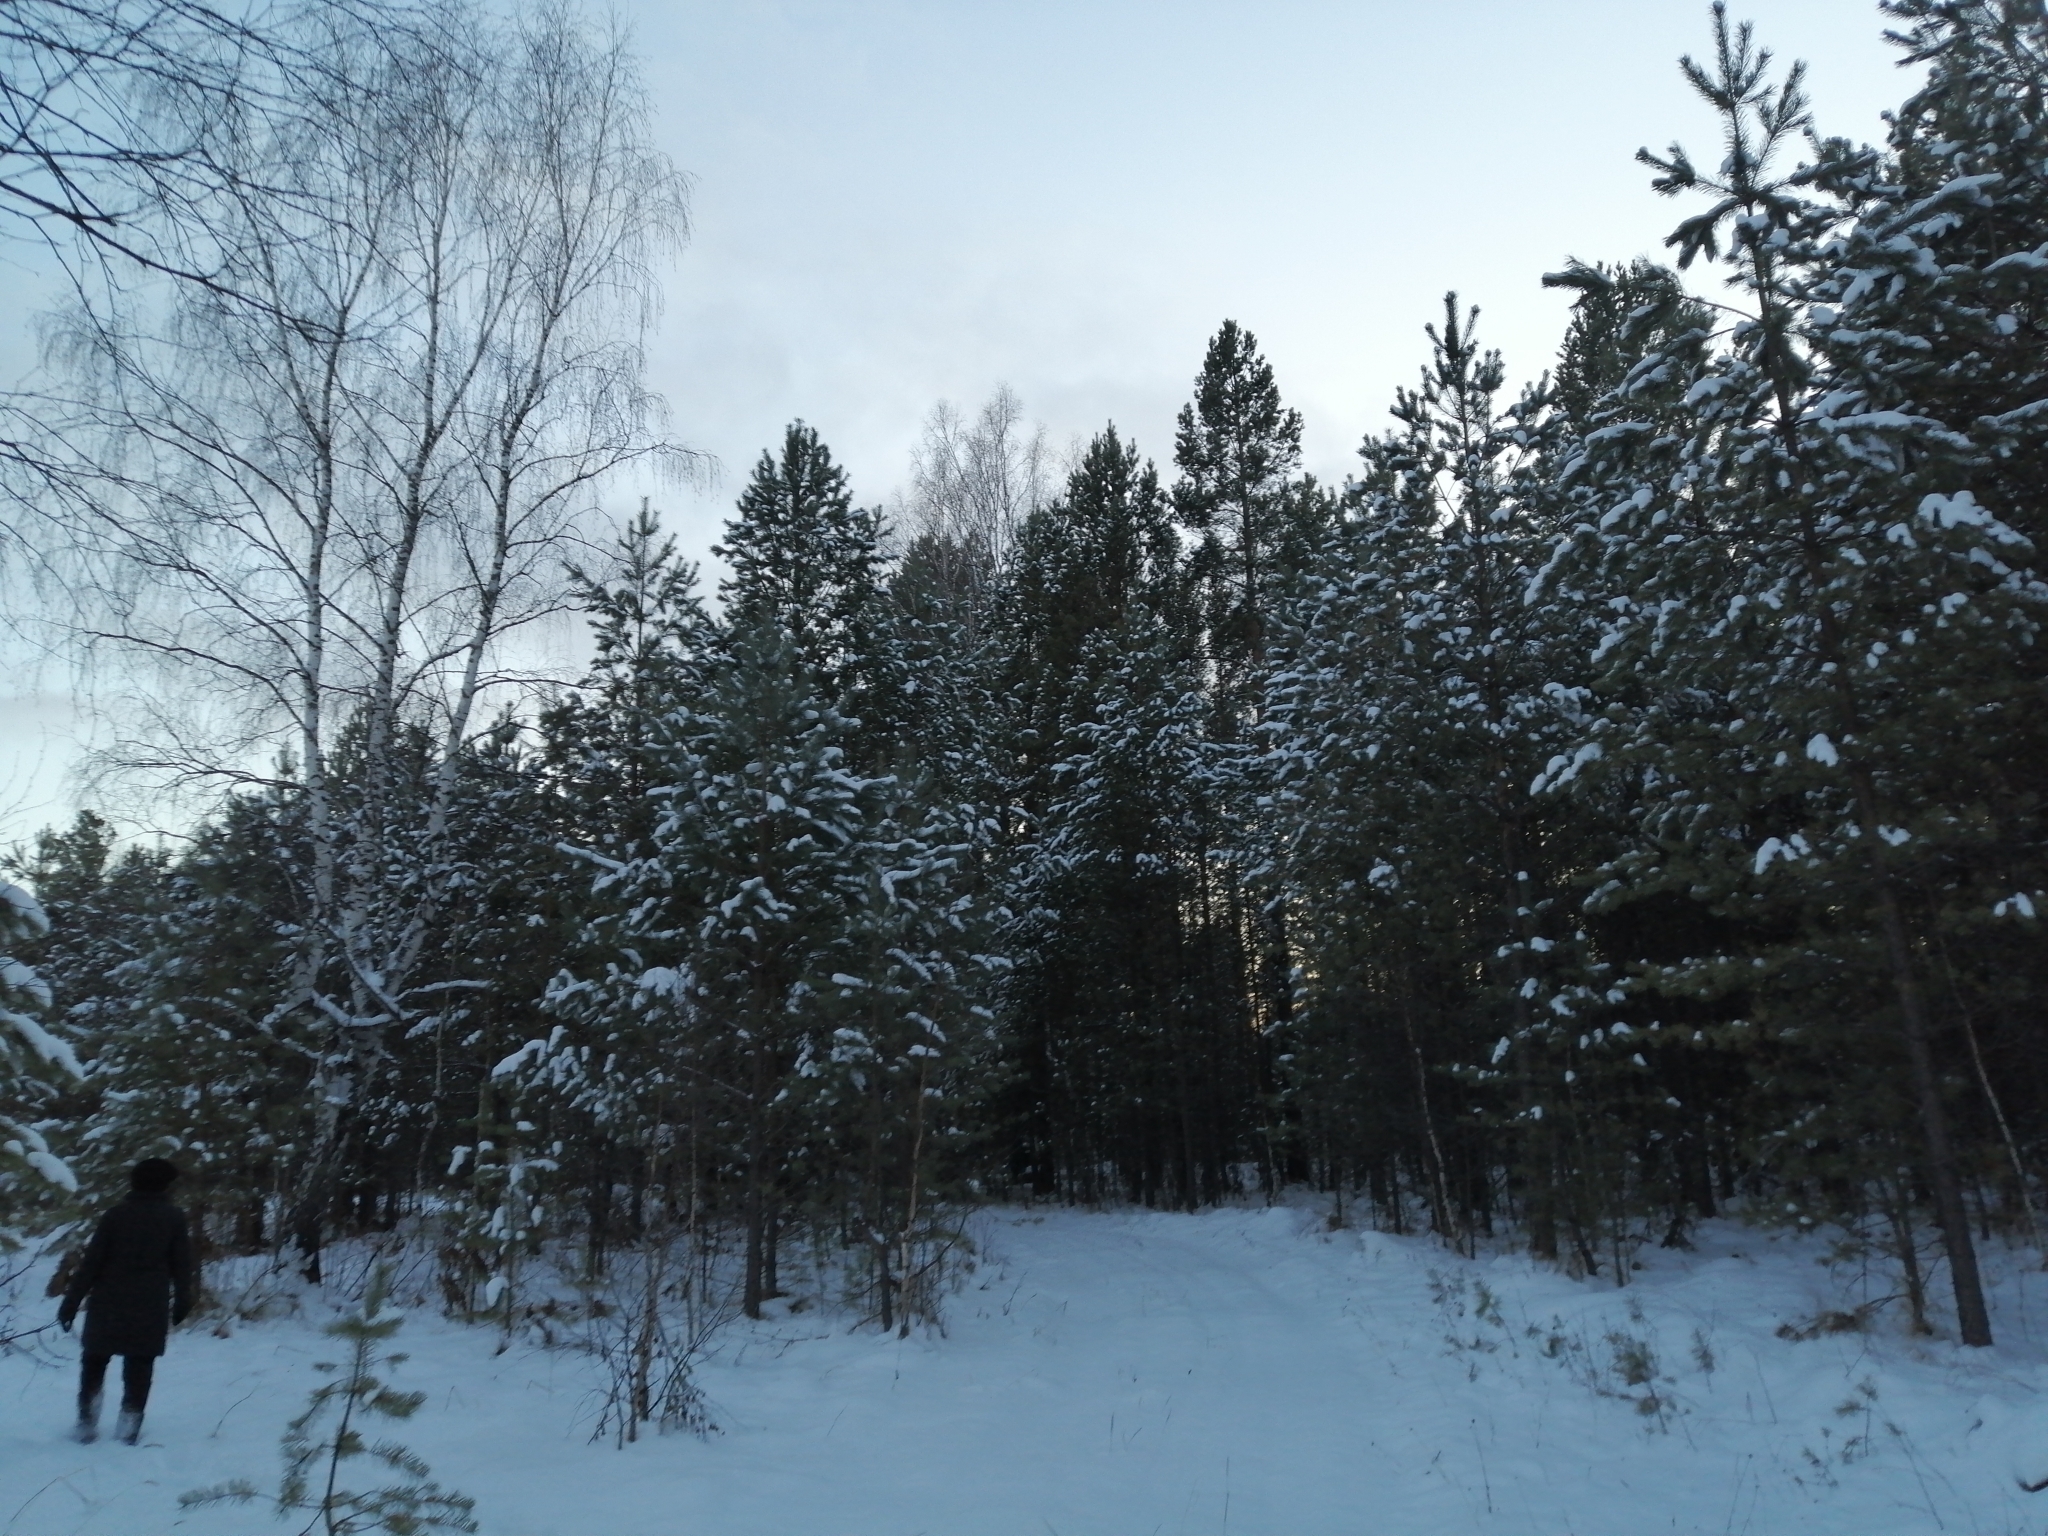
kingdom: Plantae
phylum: Tracheophyta
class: Pinopsida
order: Pinales
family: Pinaceae
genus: Pinus
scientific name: Pinus sylvestris
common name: Scots pine
